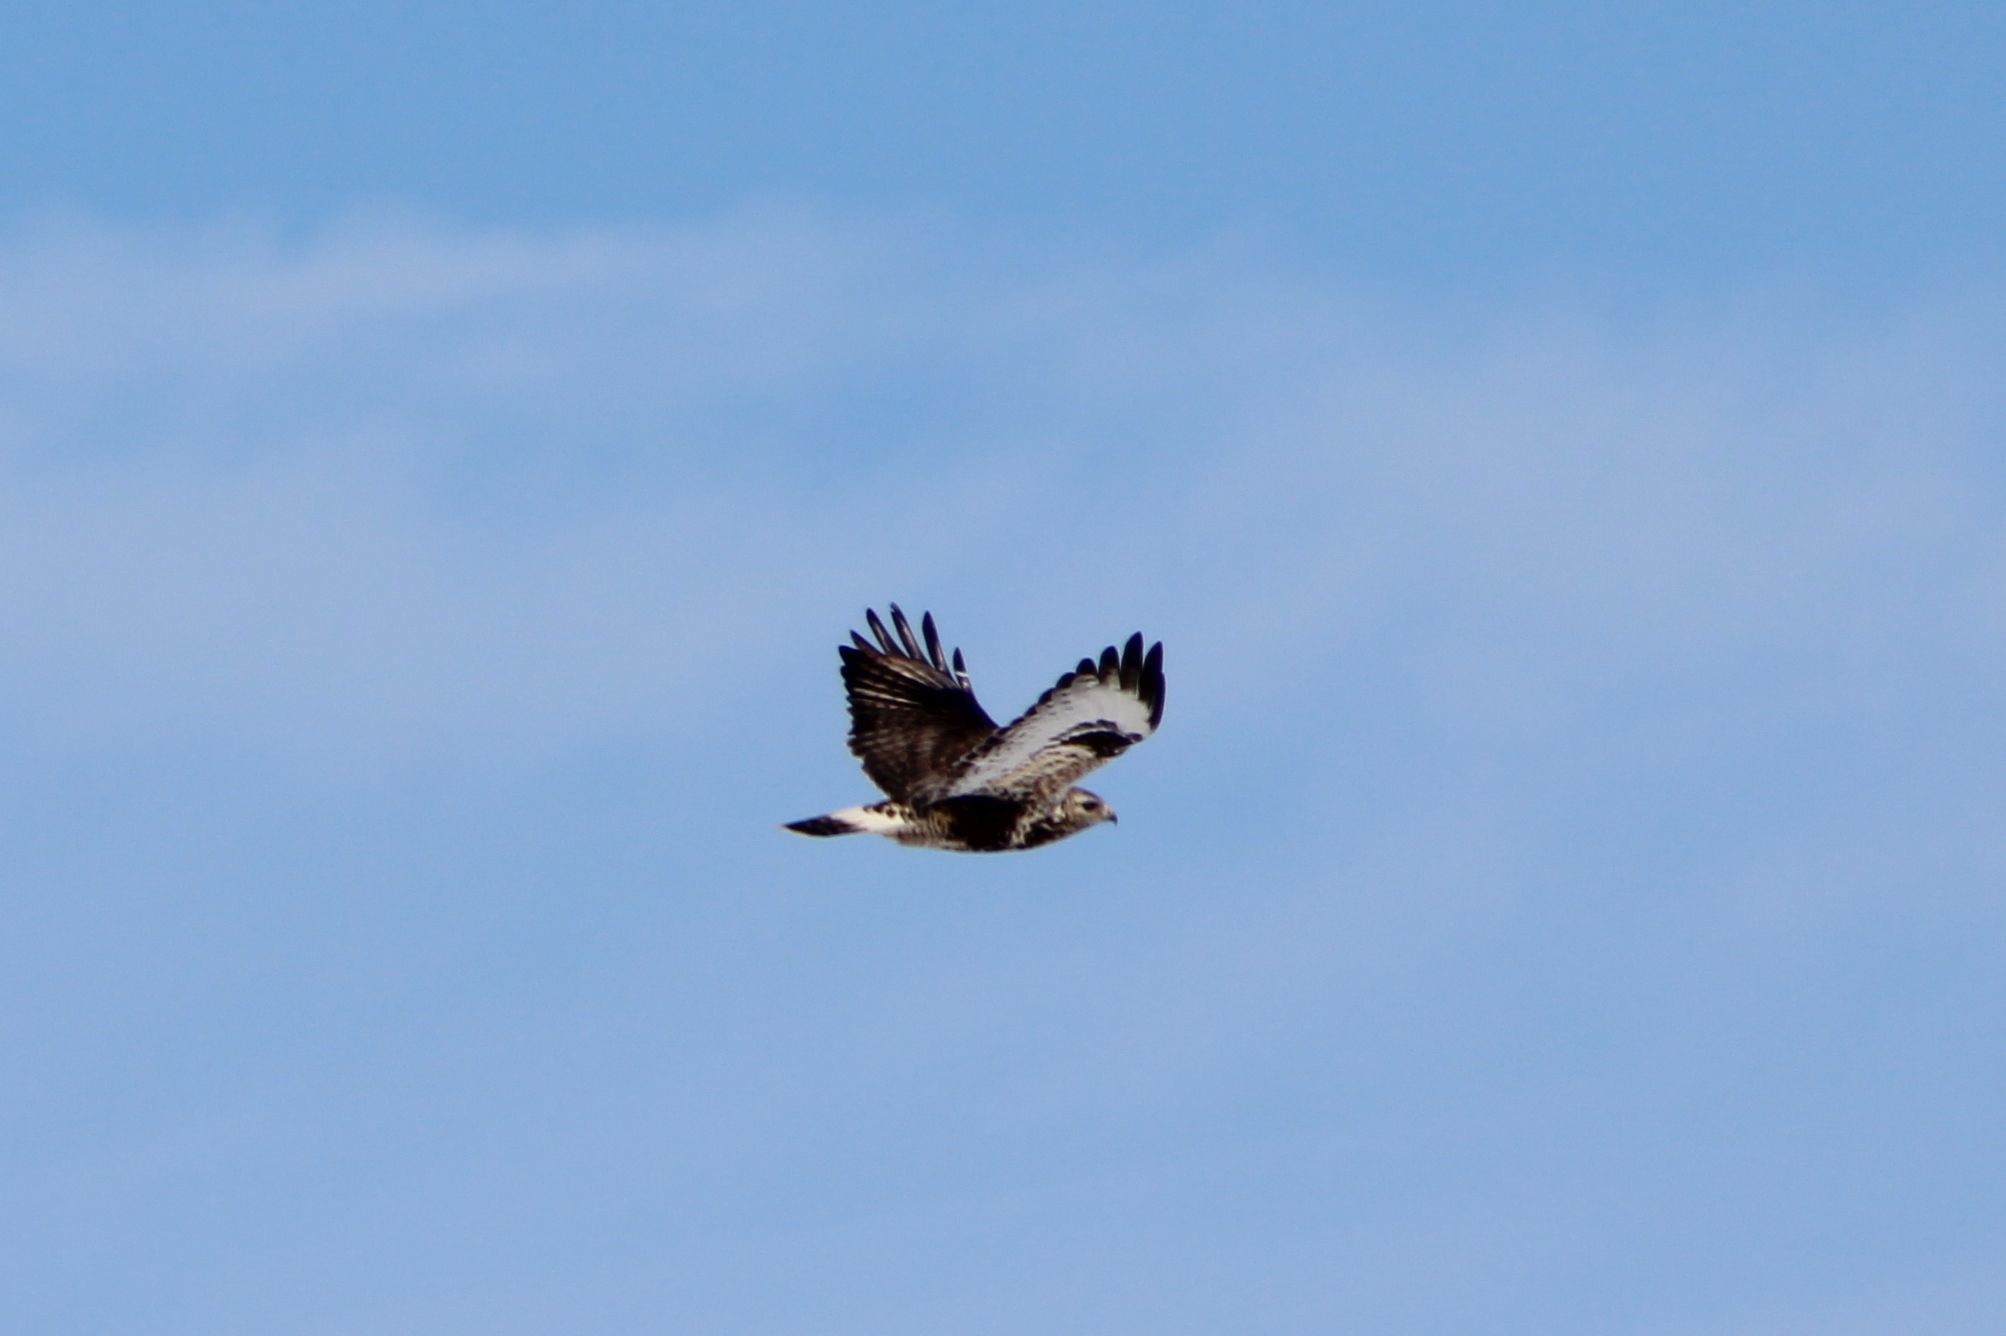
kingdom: Animalia
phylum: Chordata
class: Aves
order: Accipitriformes
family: Accipitridae
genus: Buteo
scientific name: Buteo lagopus
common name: Rough-legged buzzard
